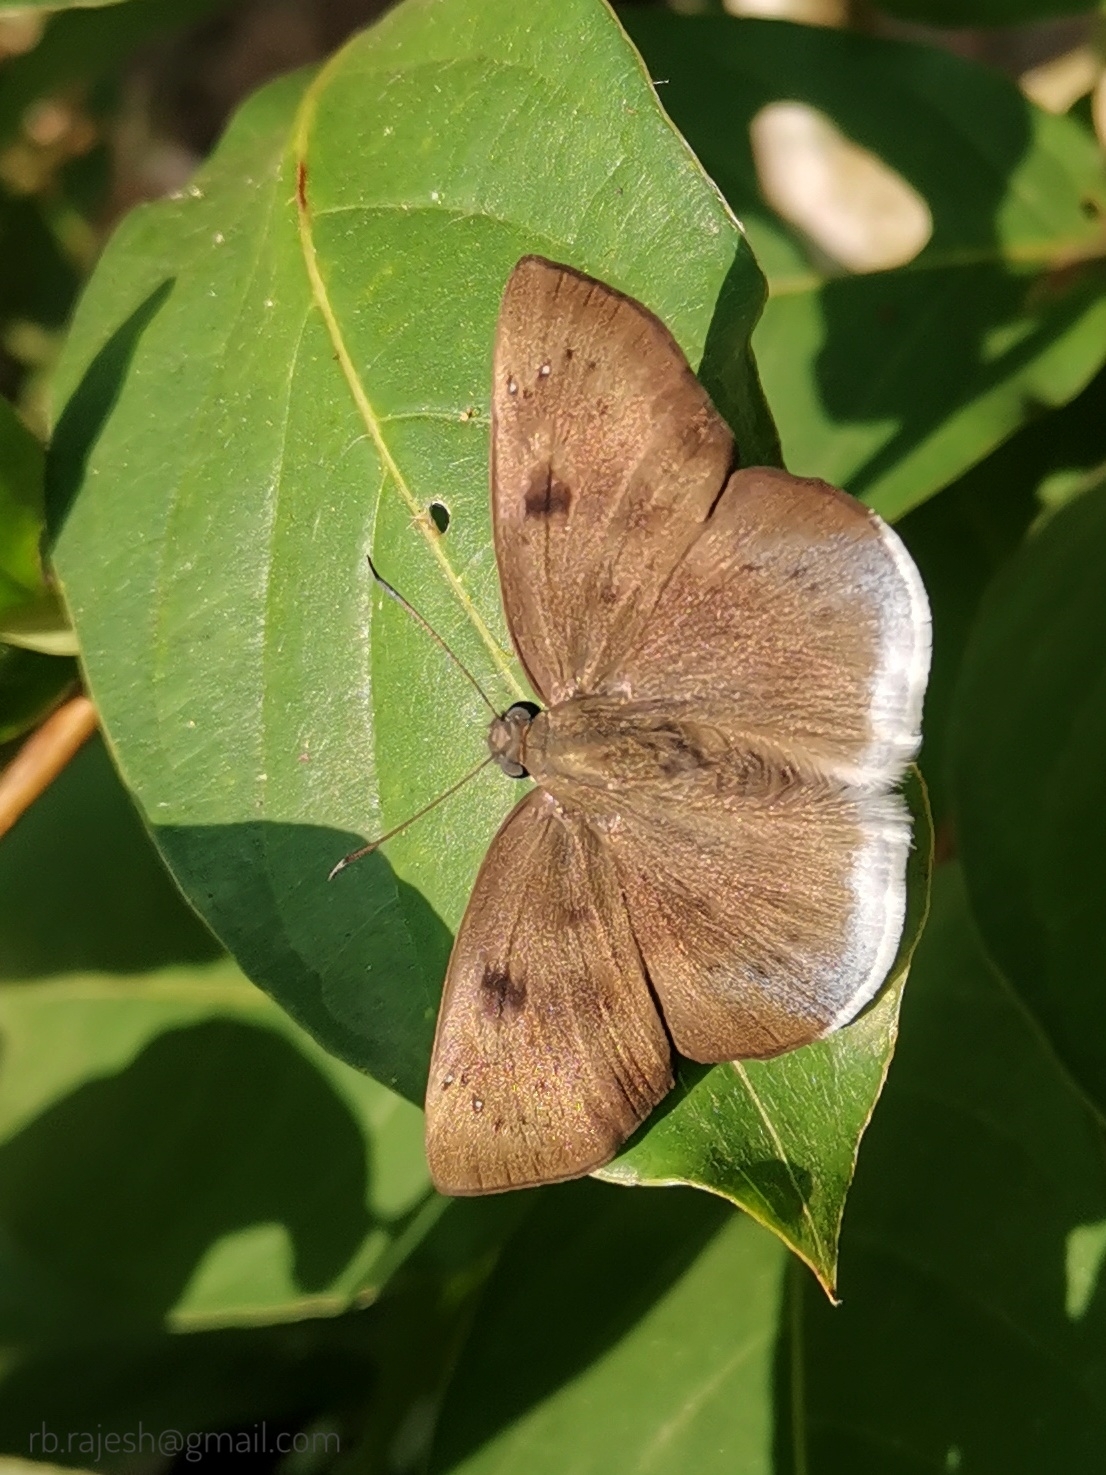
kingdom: Animalia
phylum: Arthropoda
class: Insecta
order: Lepidoptera
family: Hesperiidae
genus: Tagiades
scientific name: Tagiades gana
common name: Suffused snow flat
